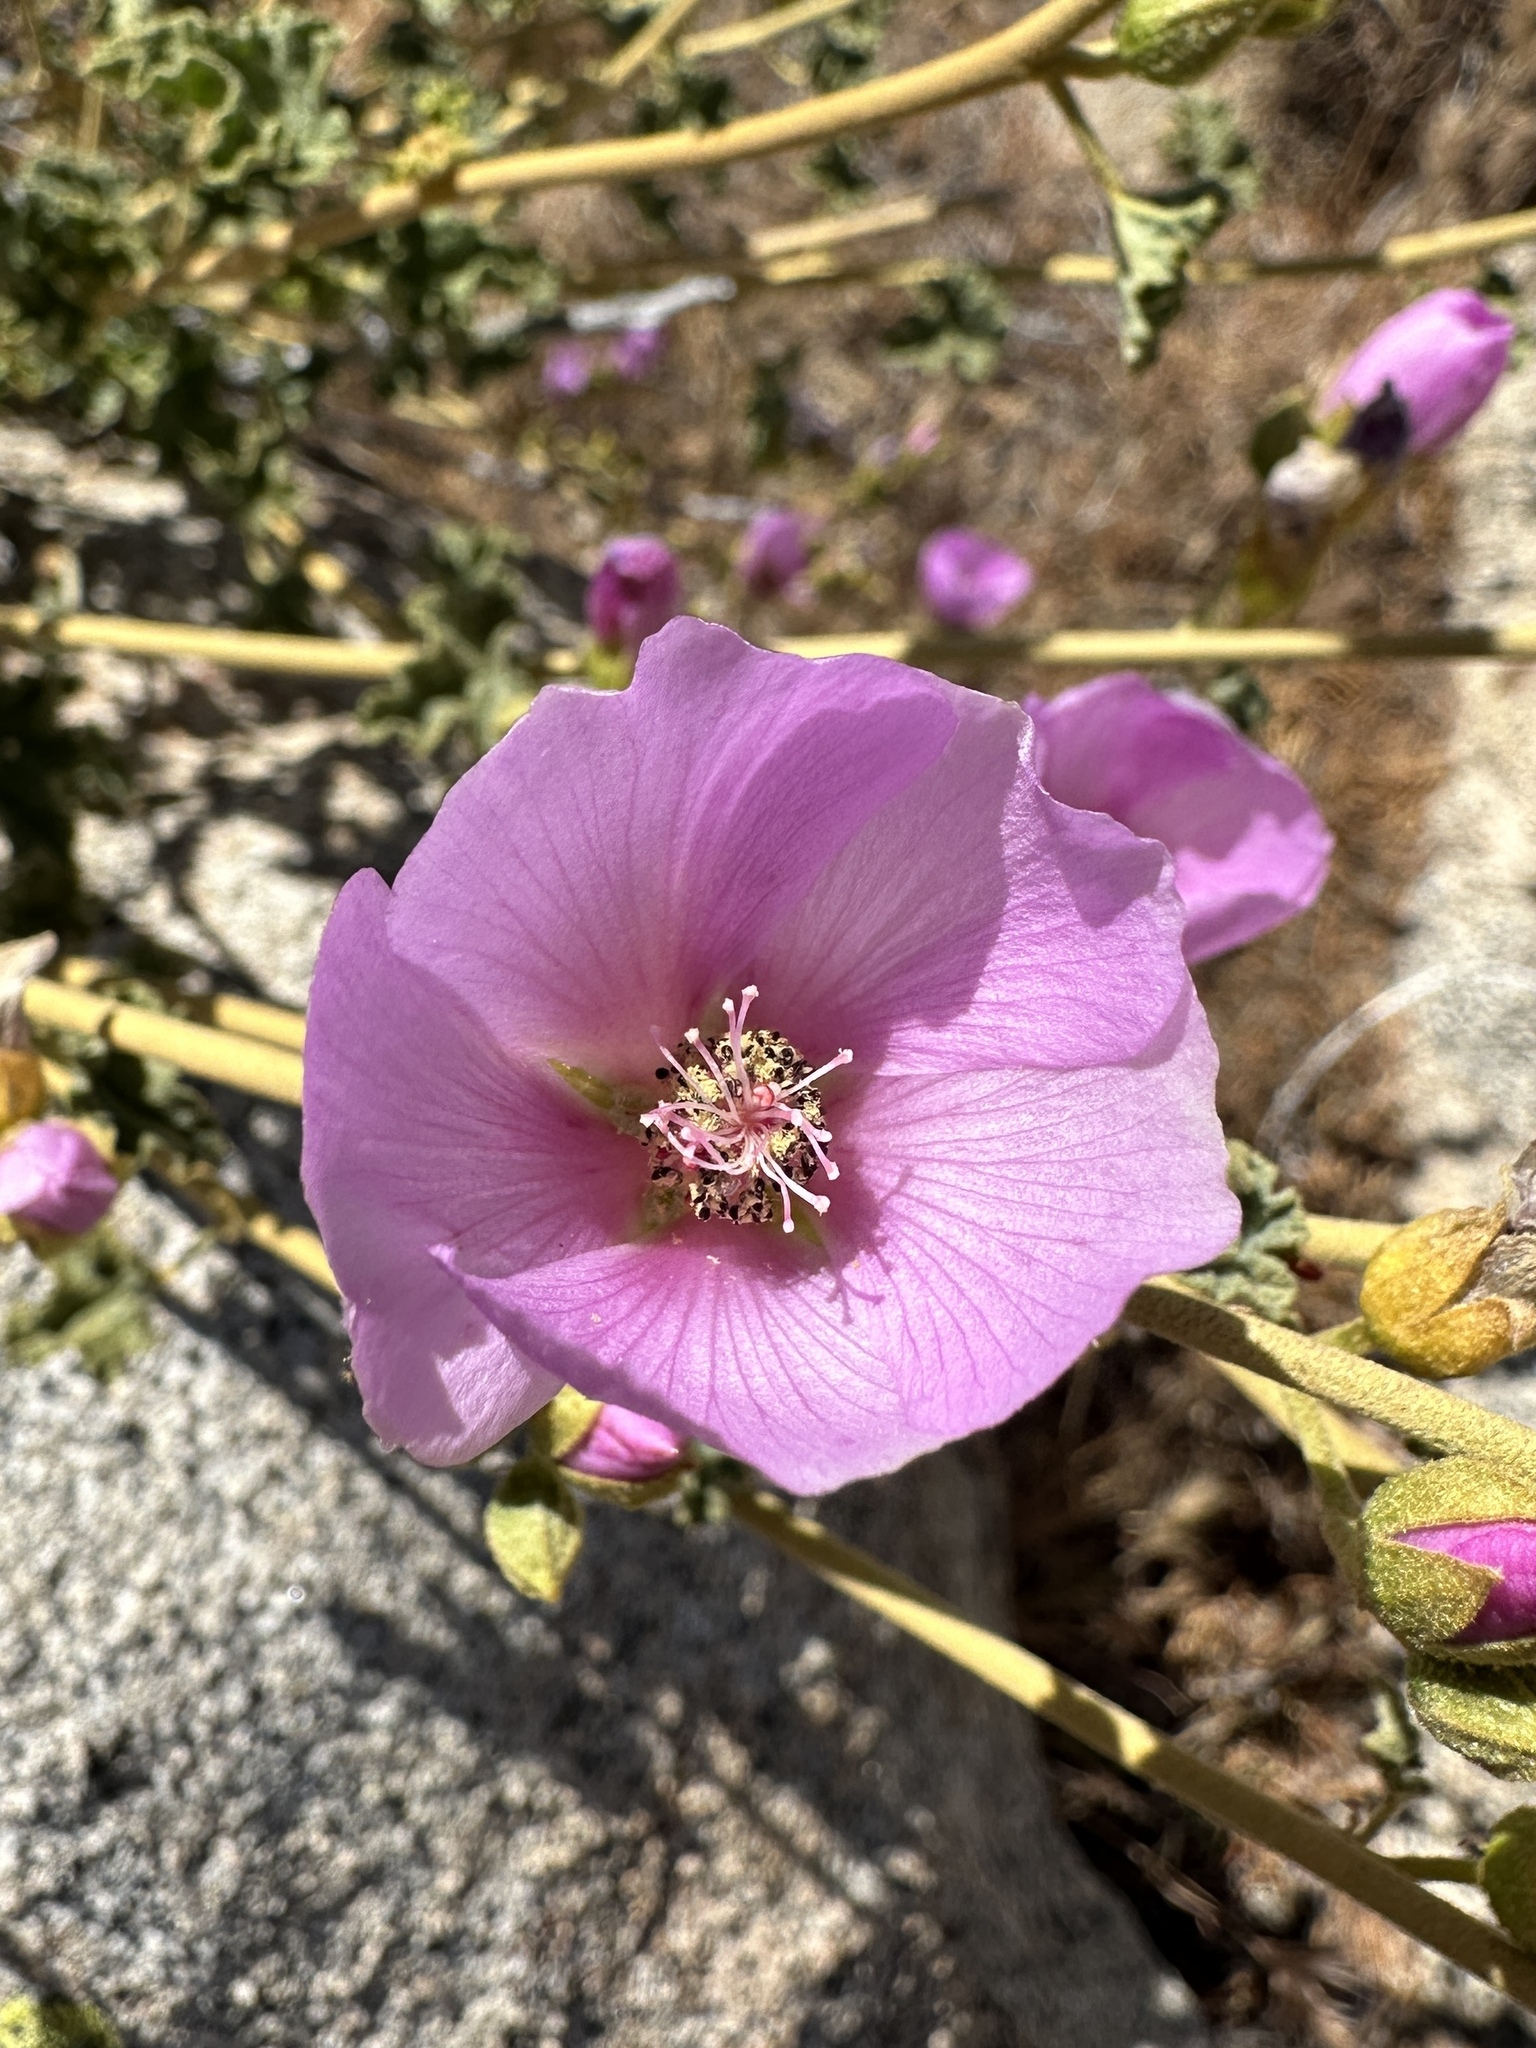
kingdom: Plantae
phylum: Tracheophyta
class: Magnoliopsida
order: Malvales
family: Malvaceae
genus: Sphaeralcea
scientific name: Sphaeralcea ambigua
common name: Apricot globe-mallow
